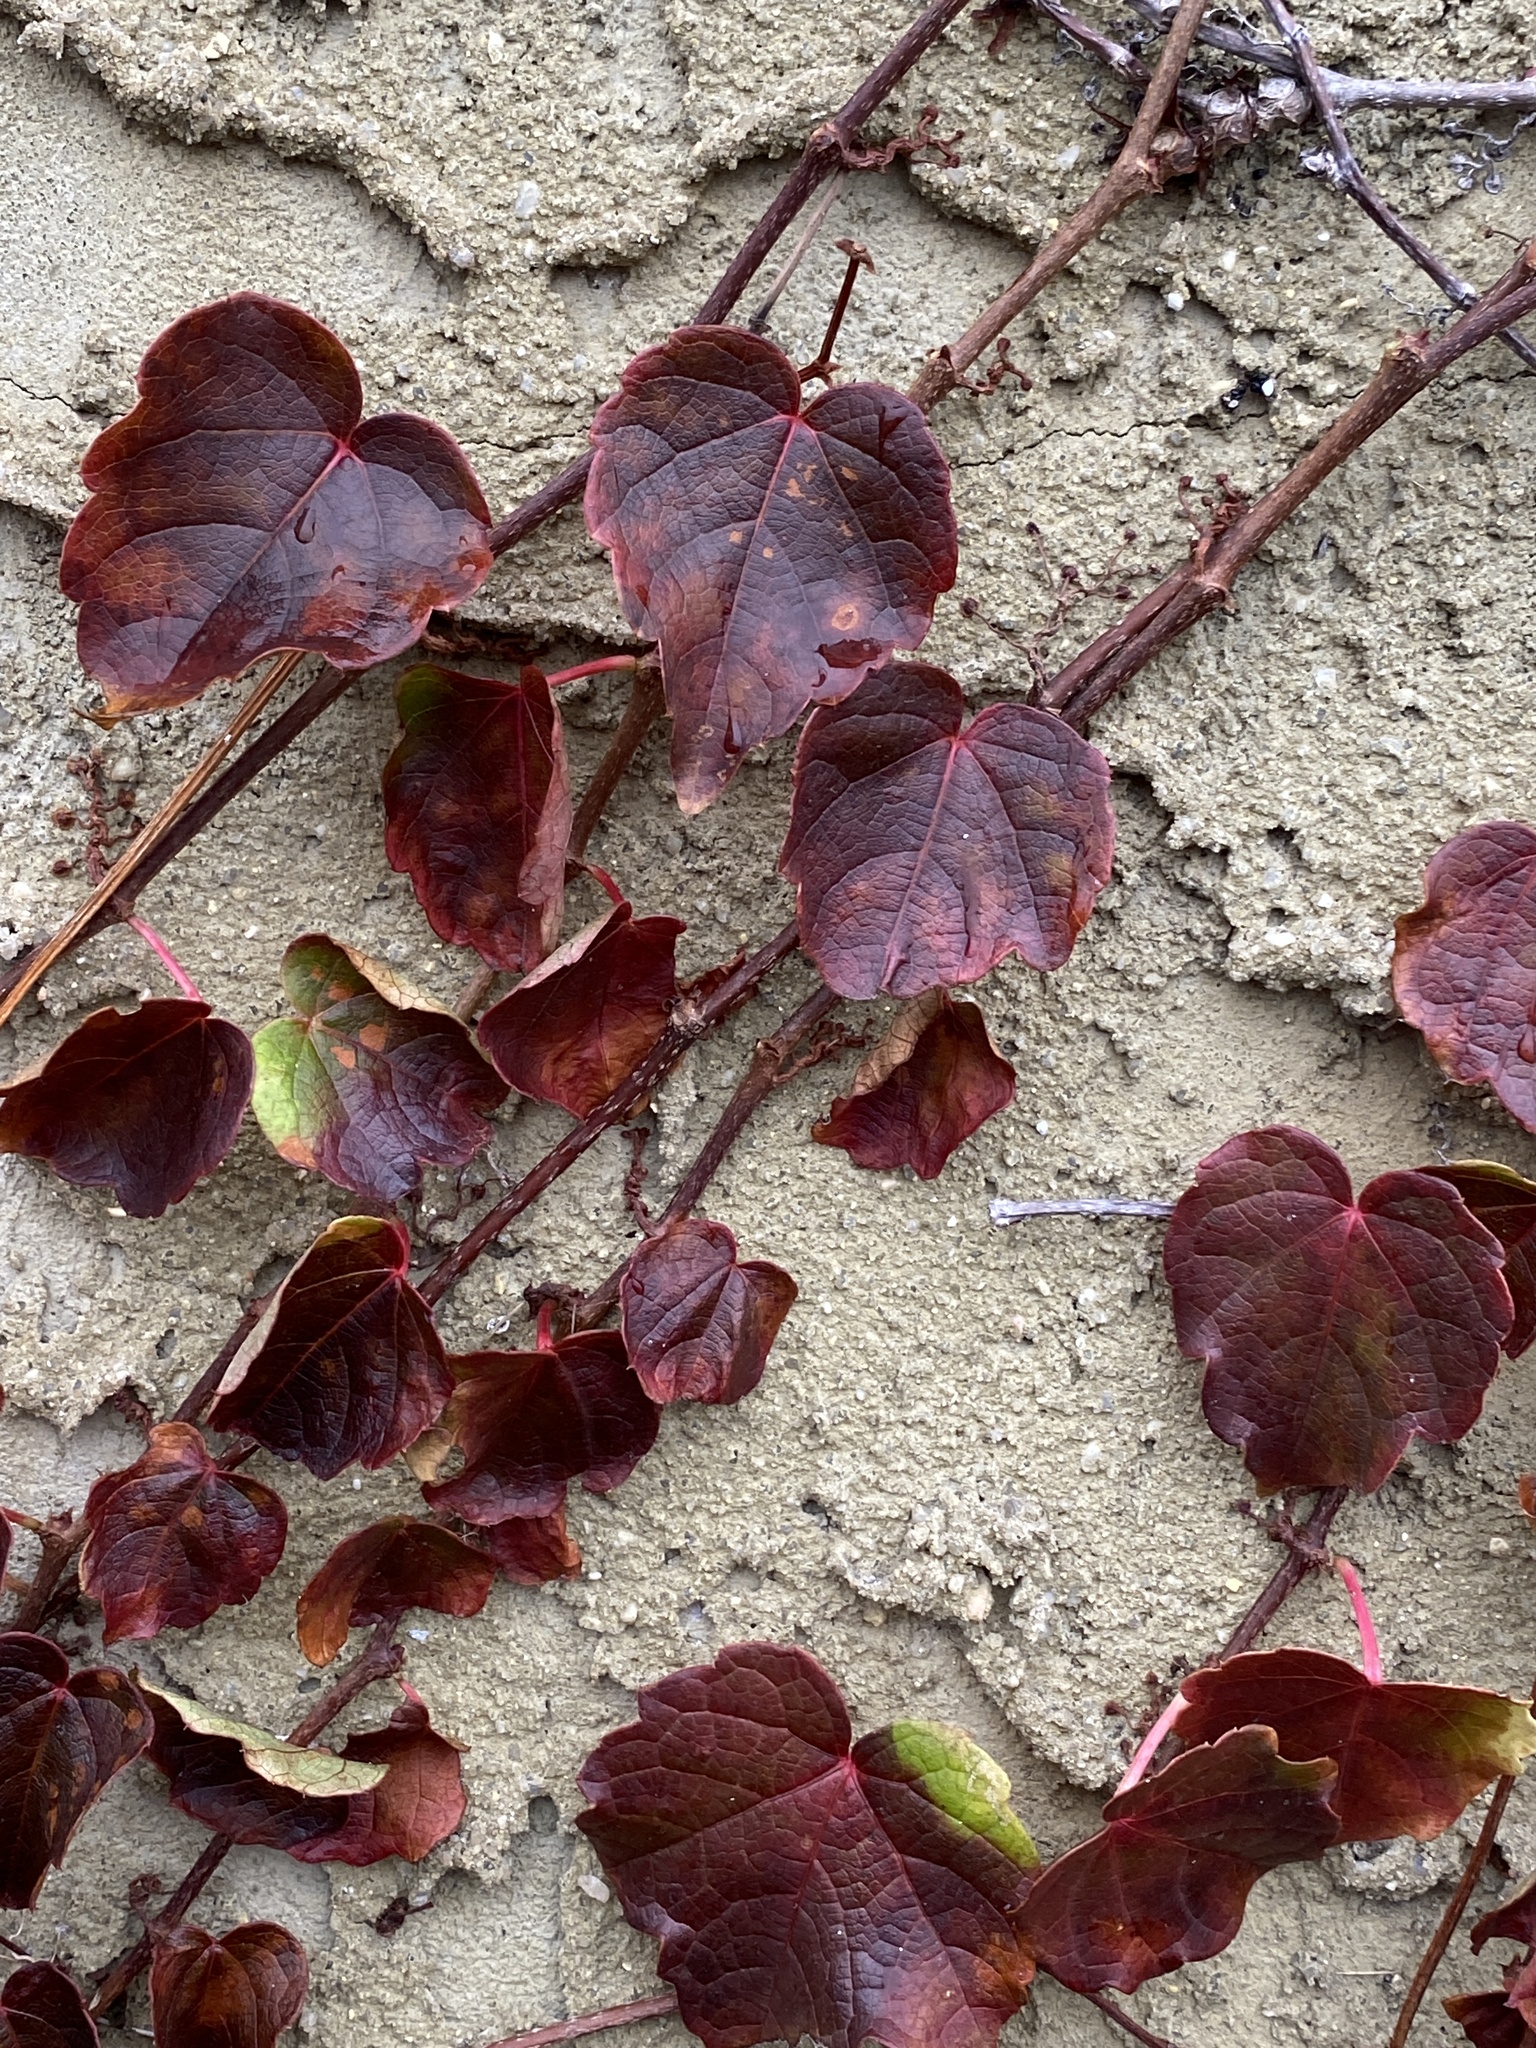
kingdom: Plantae
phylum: Tracheophyta
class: Magnoliopsida
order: Vitales
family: Vitaceae
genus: Parthenocissus
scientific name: Parthenocissus tricuspidata
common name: Boston ivy
